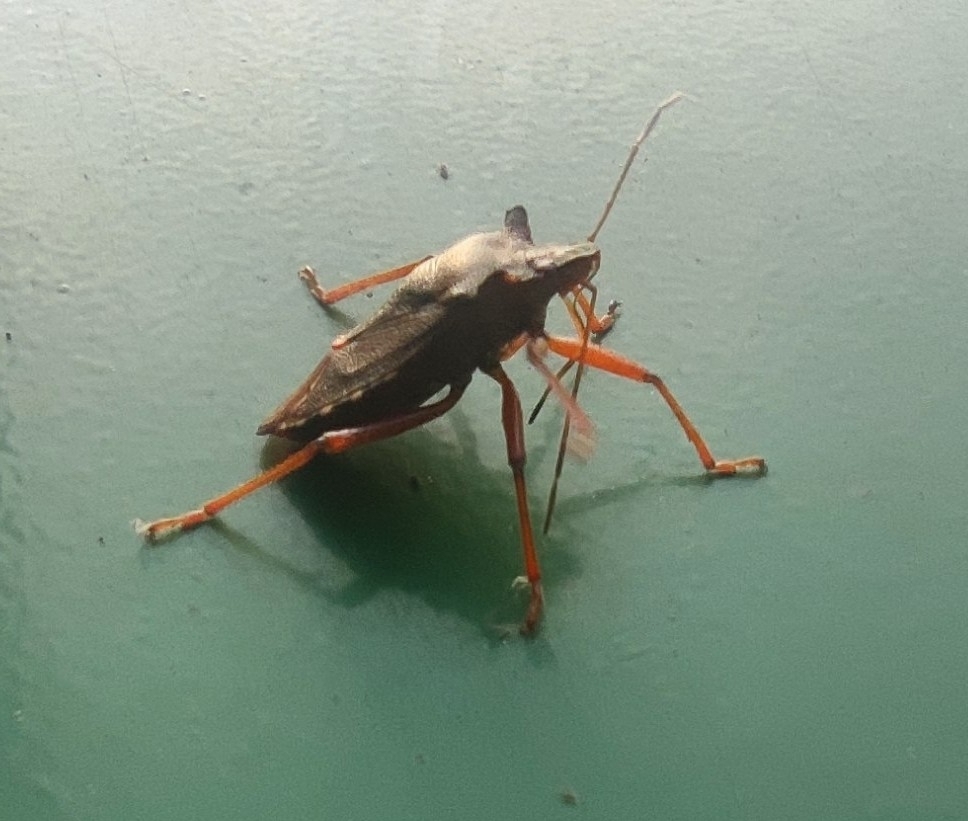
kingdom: Animalia
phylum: Arthropoda
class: Insecta
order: Hemiptera
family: Pentatomidae
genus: Pentatoma
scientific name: Pentatoma rufipes
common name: Forest bug
